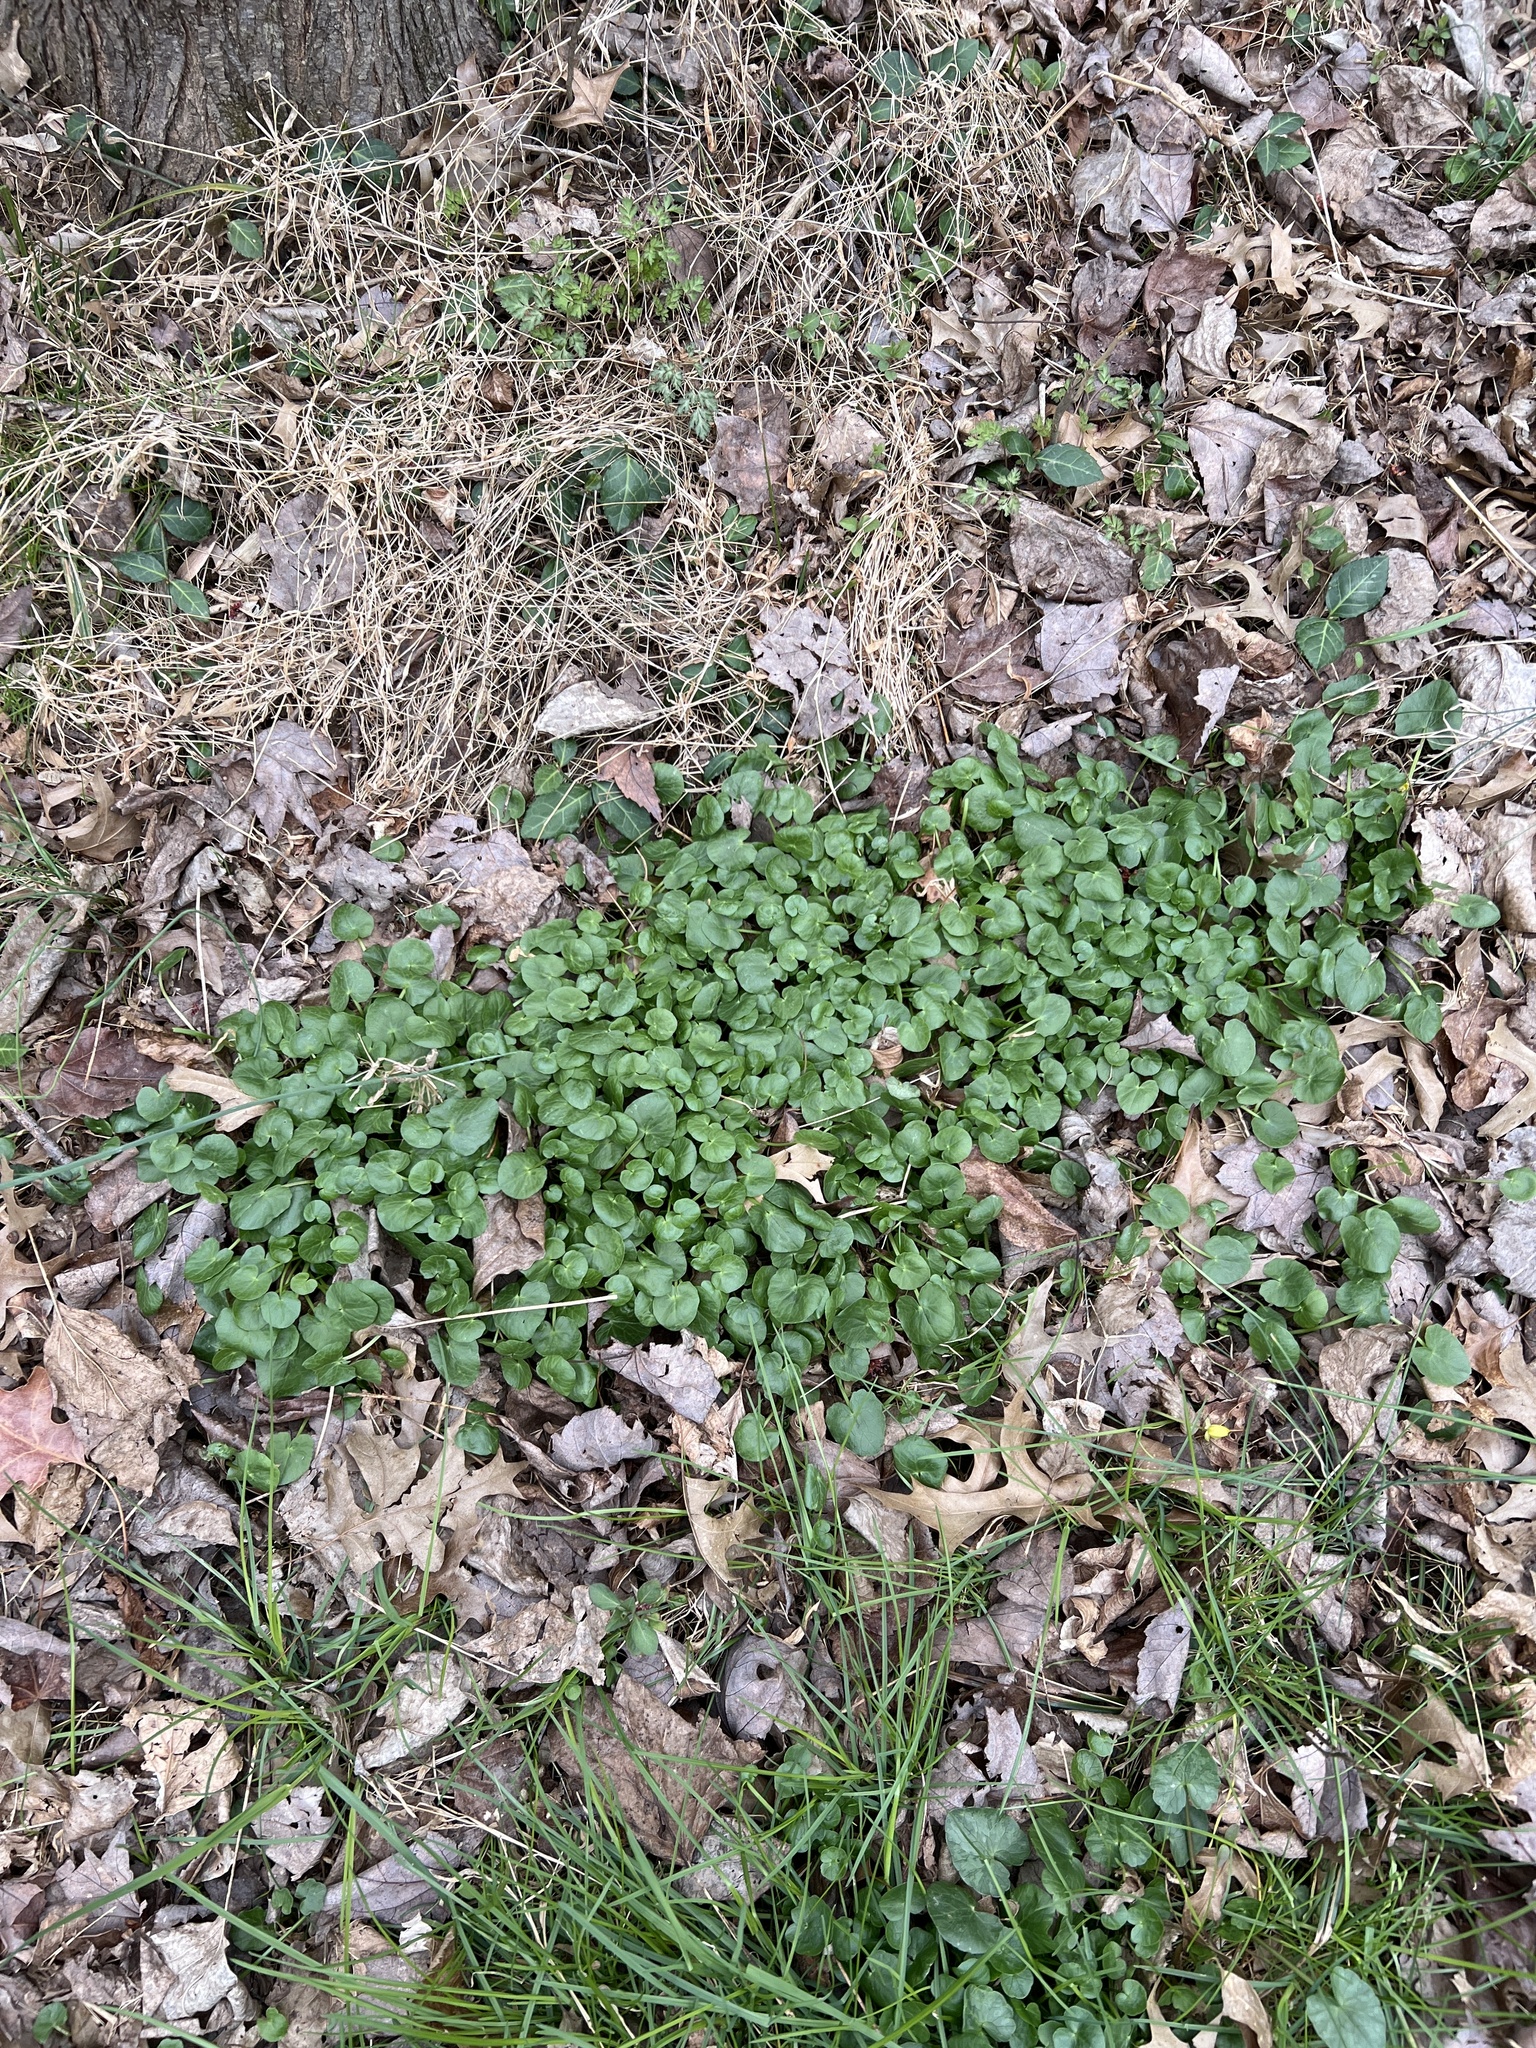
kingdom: Plantae
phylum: Tracheophyta
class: Magnoliopsida
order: Ranunculales
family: Ranunculaceae
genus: Ficaria
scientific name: Ficaria verna
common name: Lesser celandine
